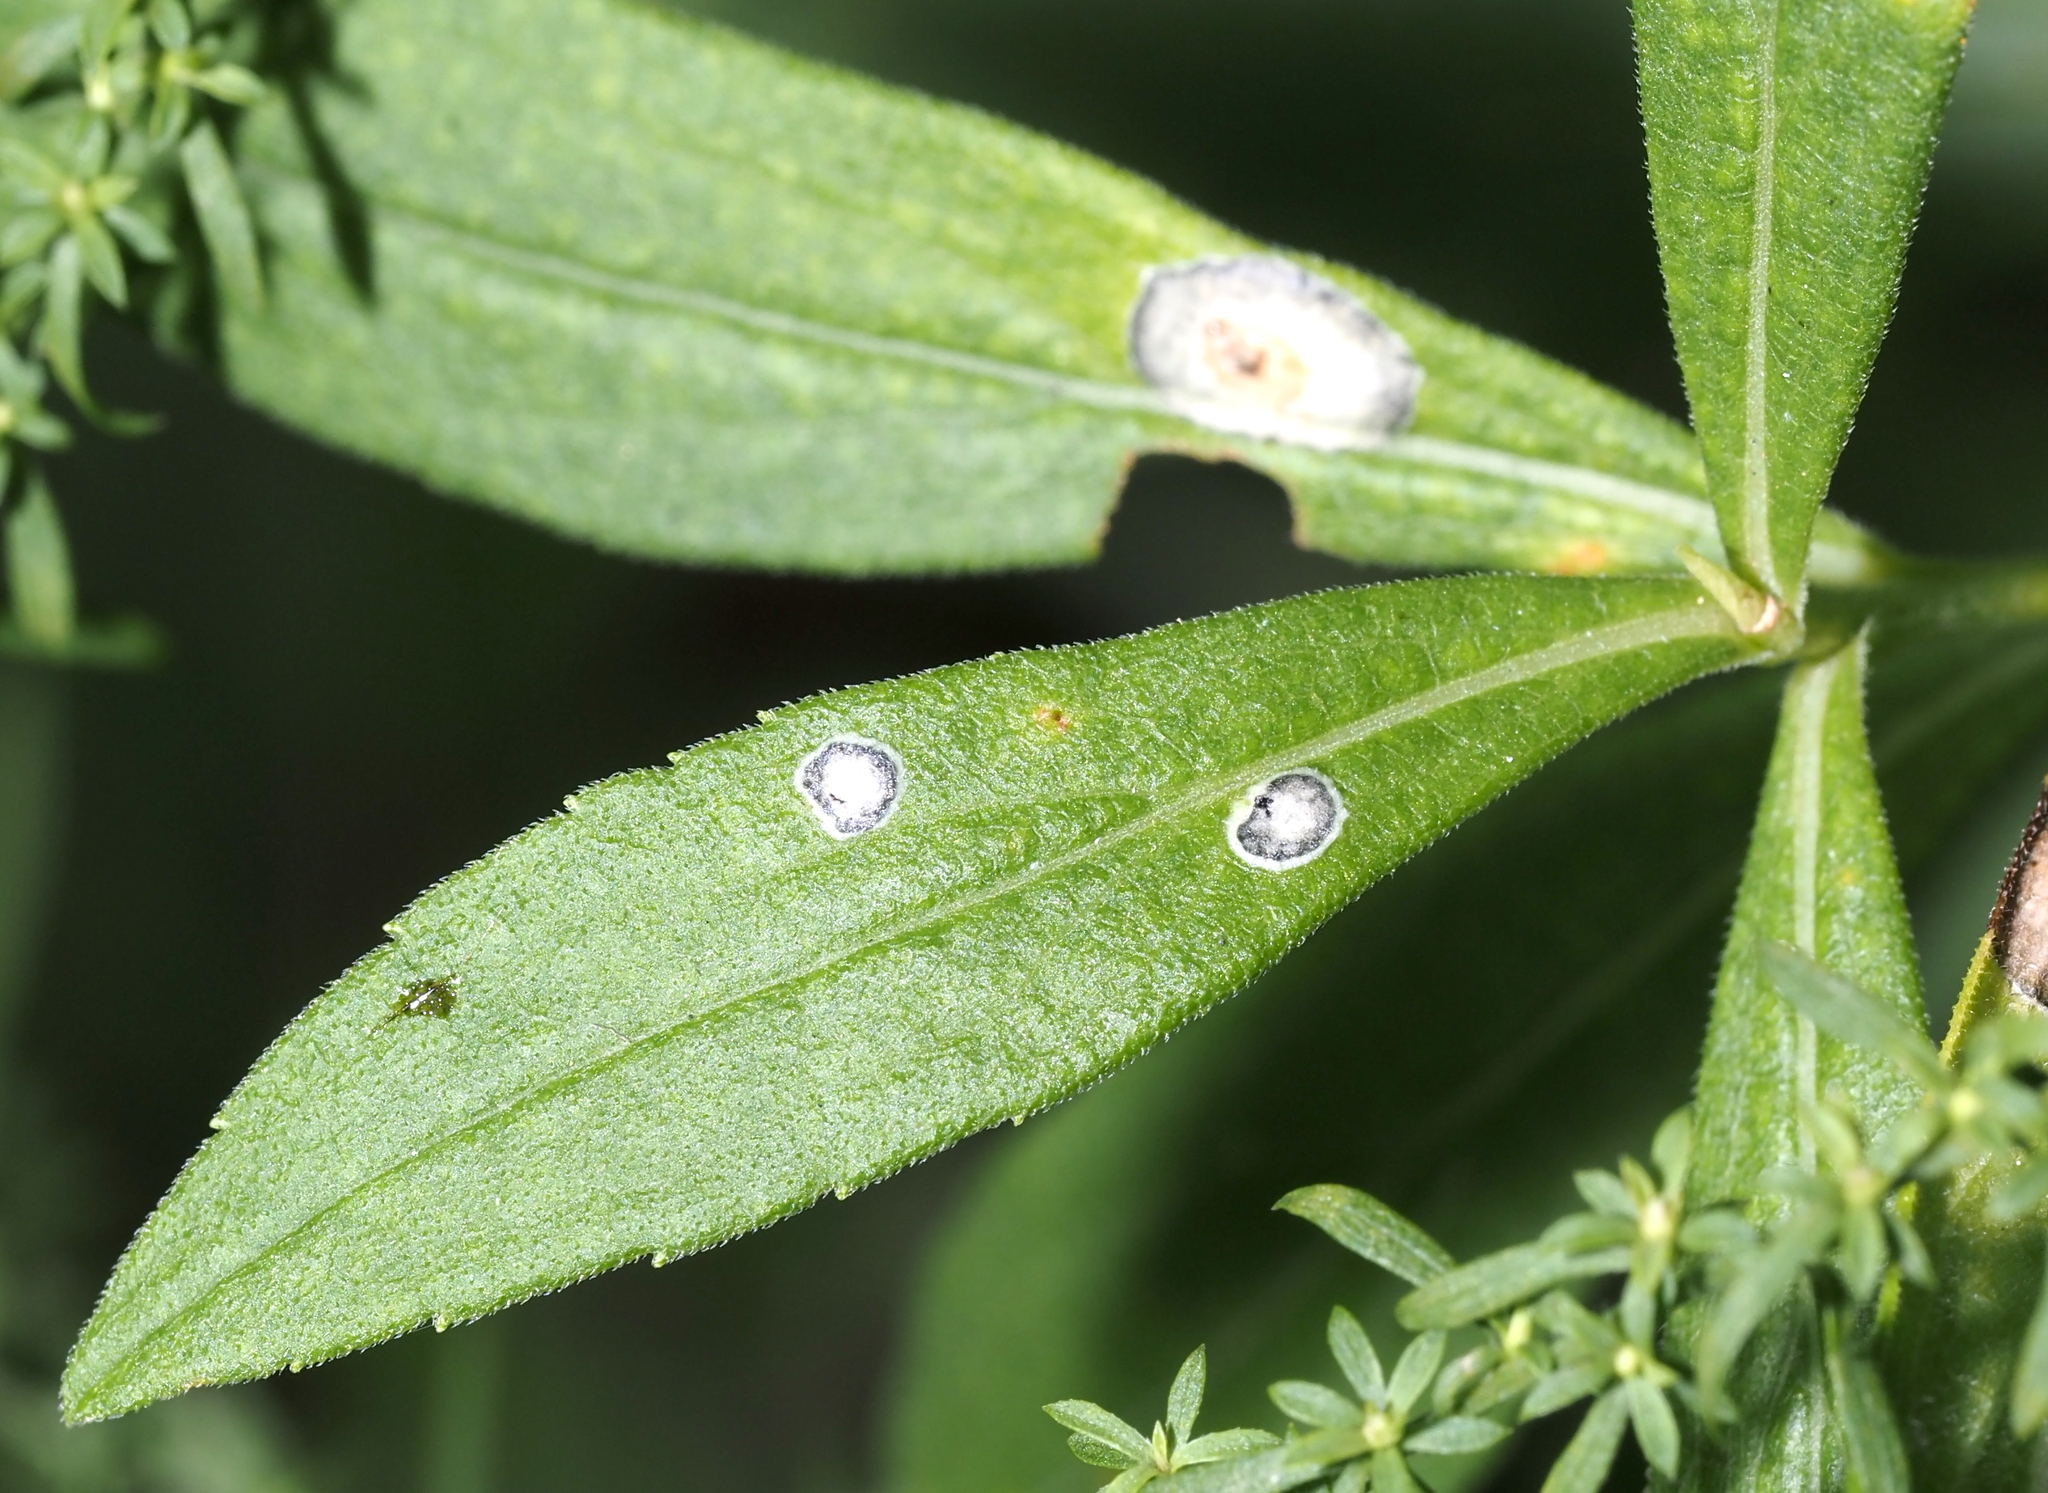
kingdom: Animalia
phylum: Arthropoda
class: Insecta
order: Diptera
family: Cecidomyiidae
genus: Asteromyia
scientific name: Asteromyia carbonifera
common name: Carbonifera goldenrod gall midge
